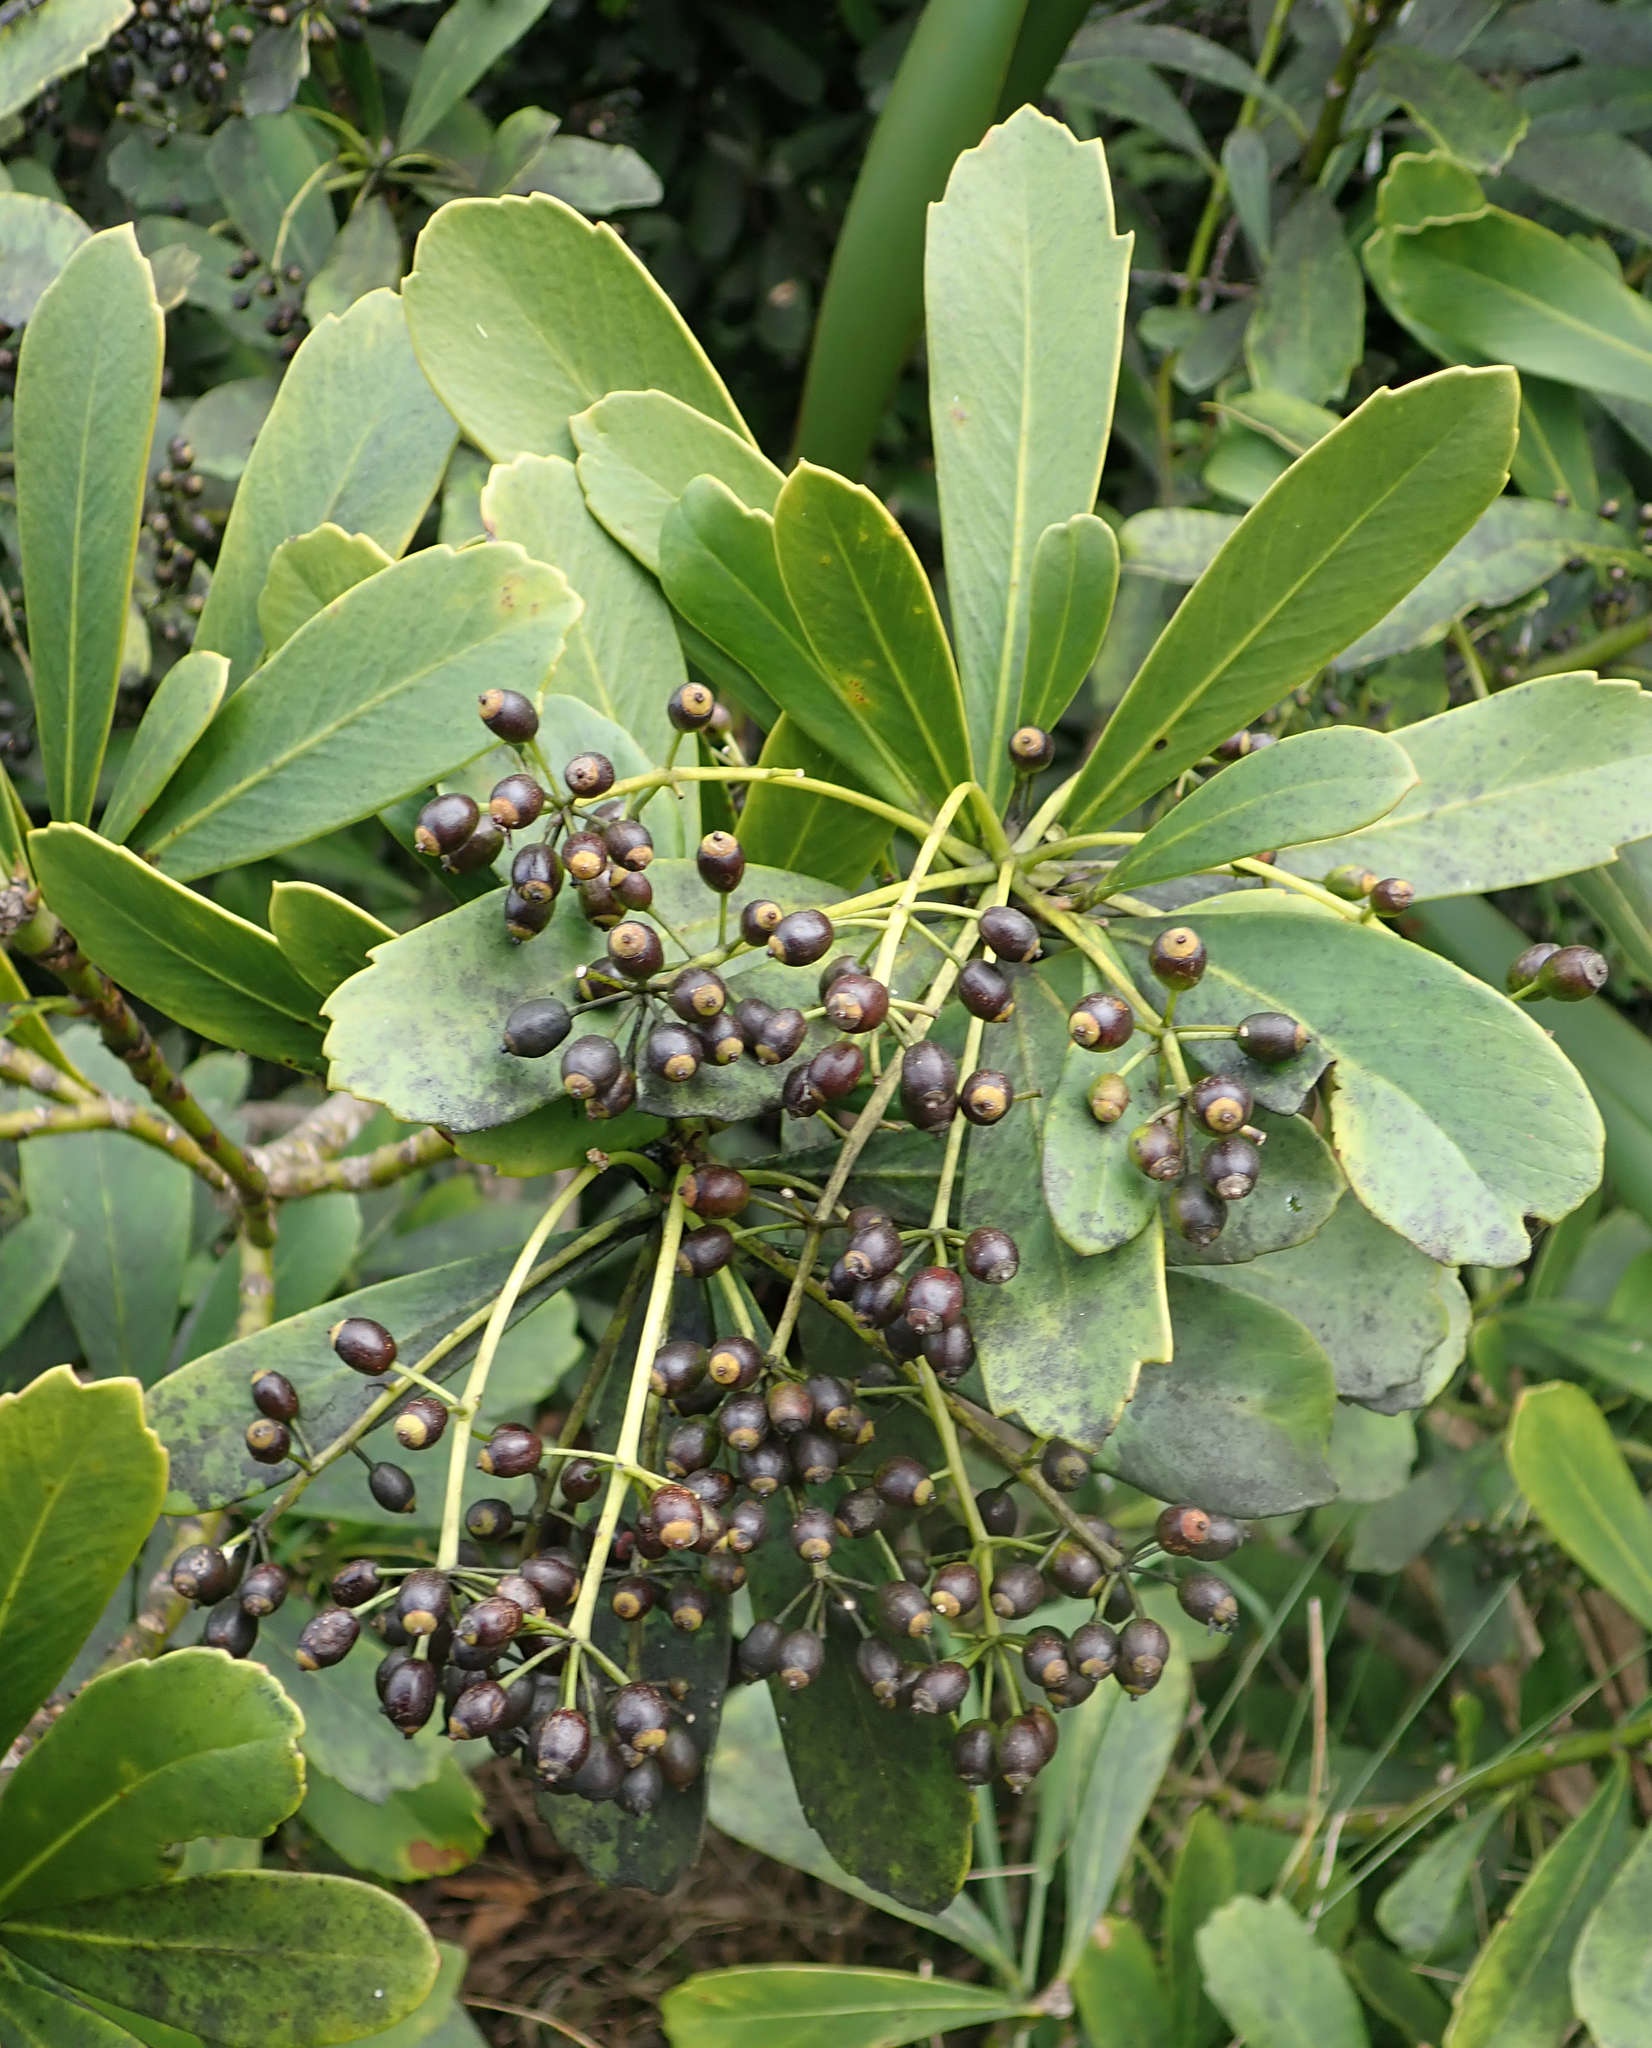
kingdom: Plantae
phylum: Tracheophyta
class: Magnoliopsida
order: Apiales
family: Araliaceae
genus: Pseudopanax
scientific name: Pseudopanax chathamicus
